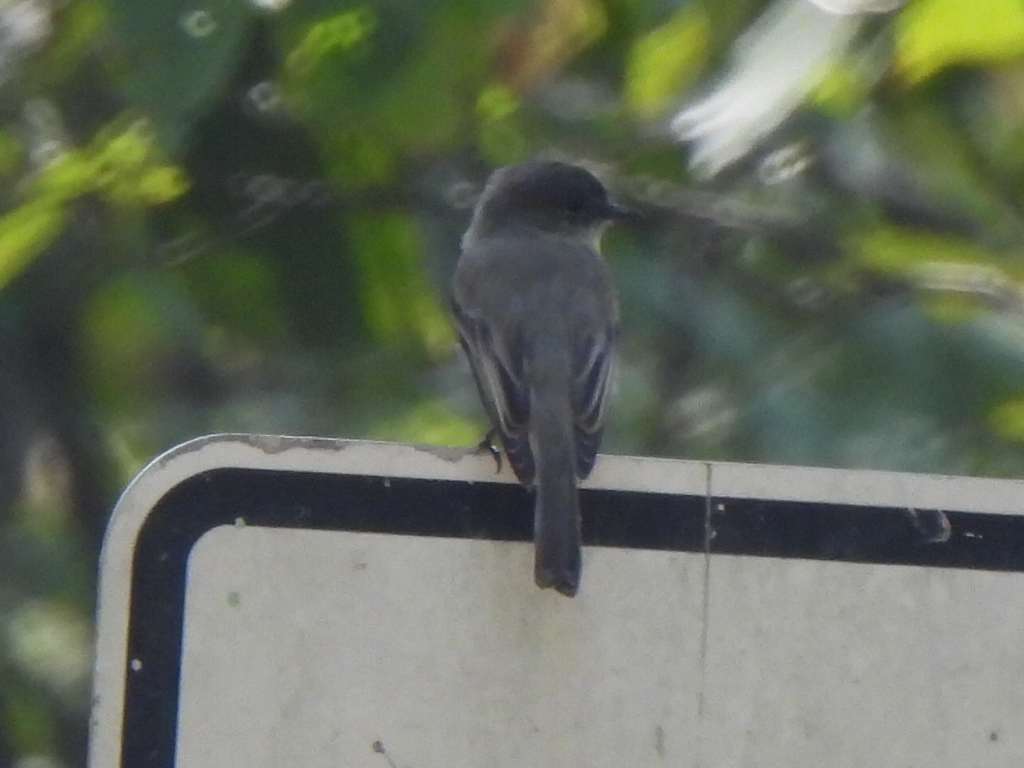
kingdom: Animalia
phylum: Chordata
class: Aves
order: Passeriformes
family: Tyrannidae
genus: Sayornis
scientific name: Sayornis phoebe
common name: Eastern phoebe
